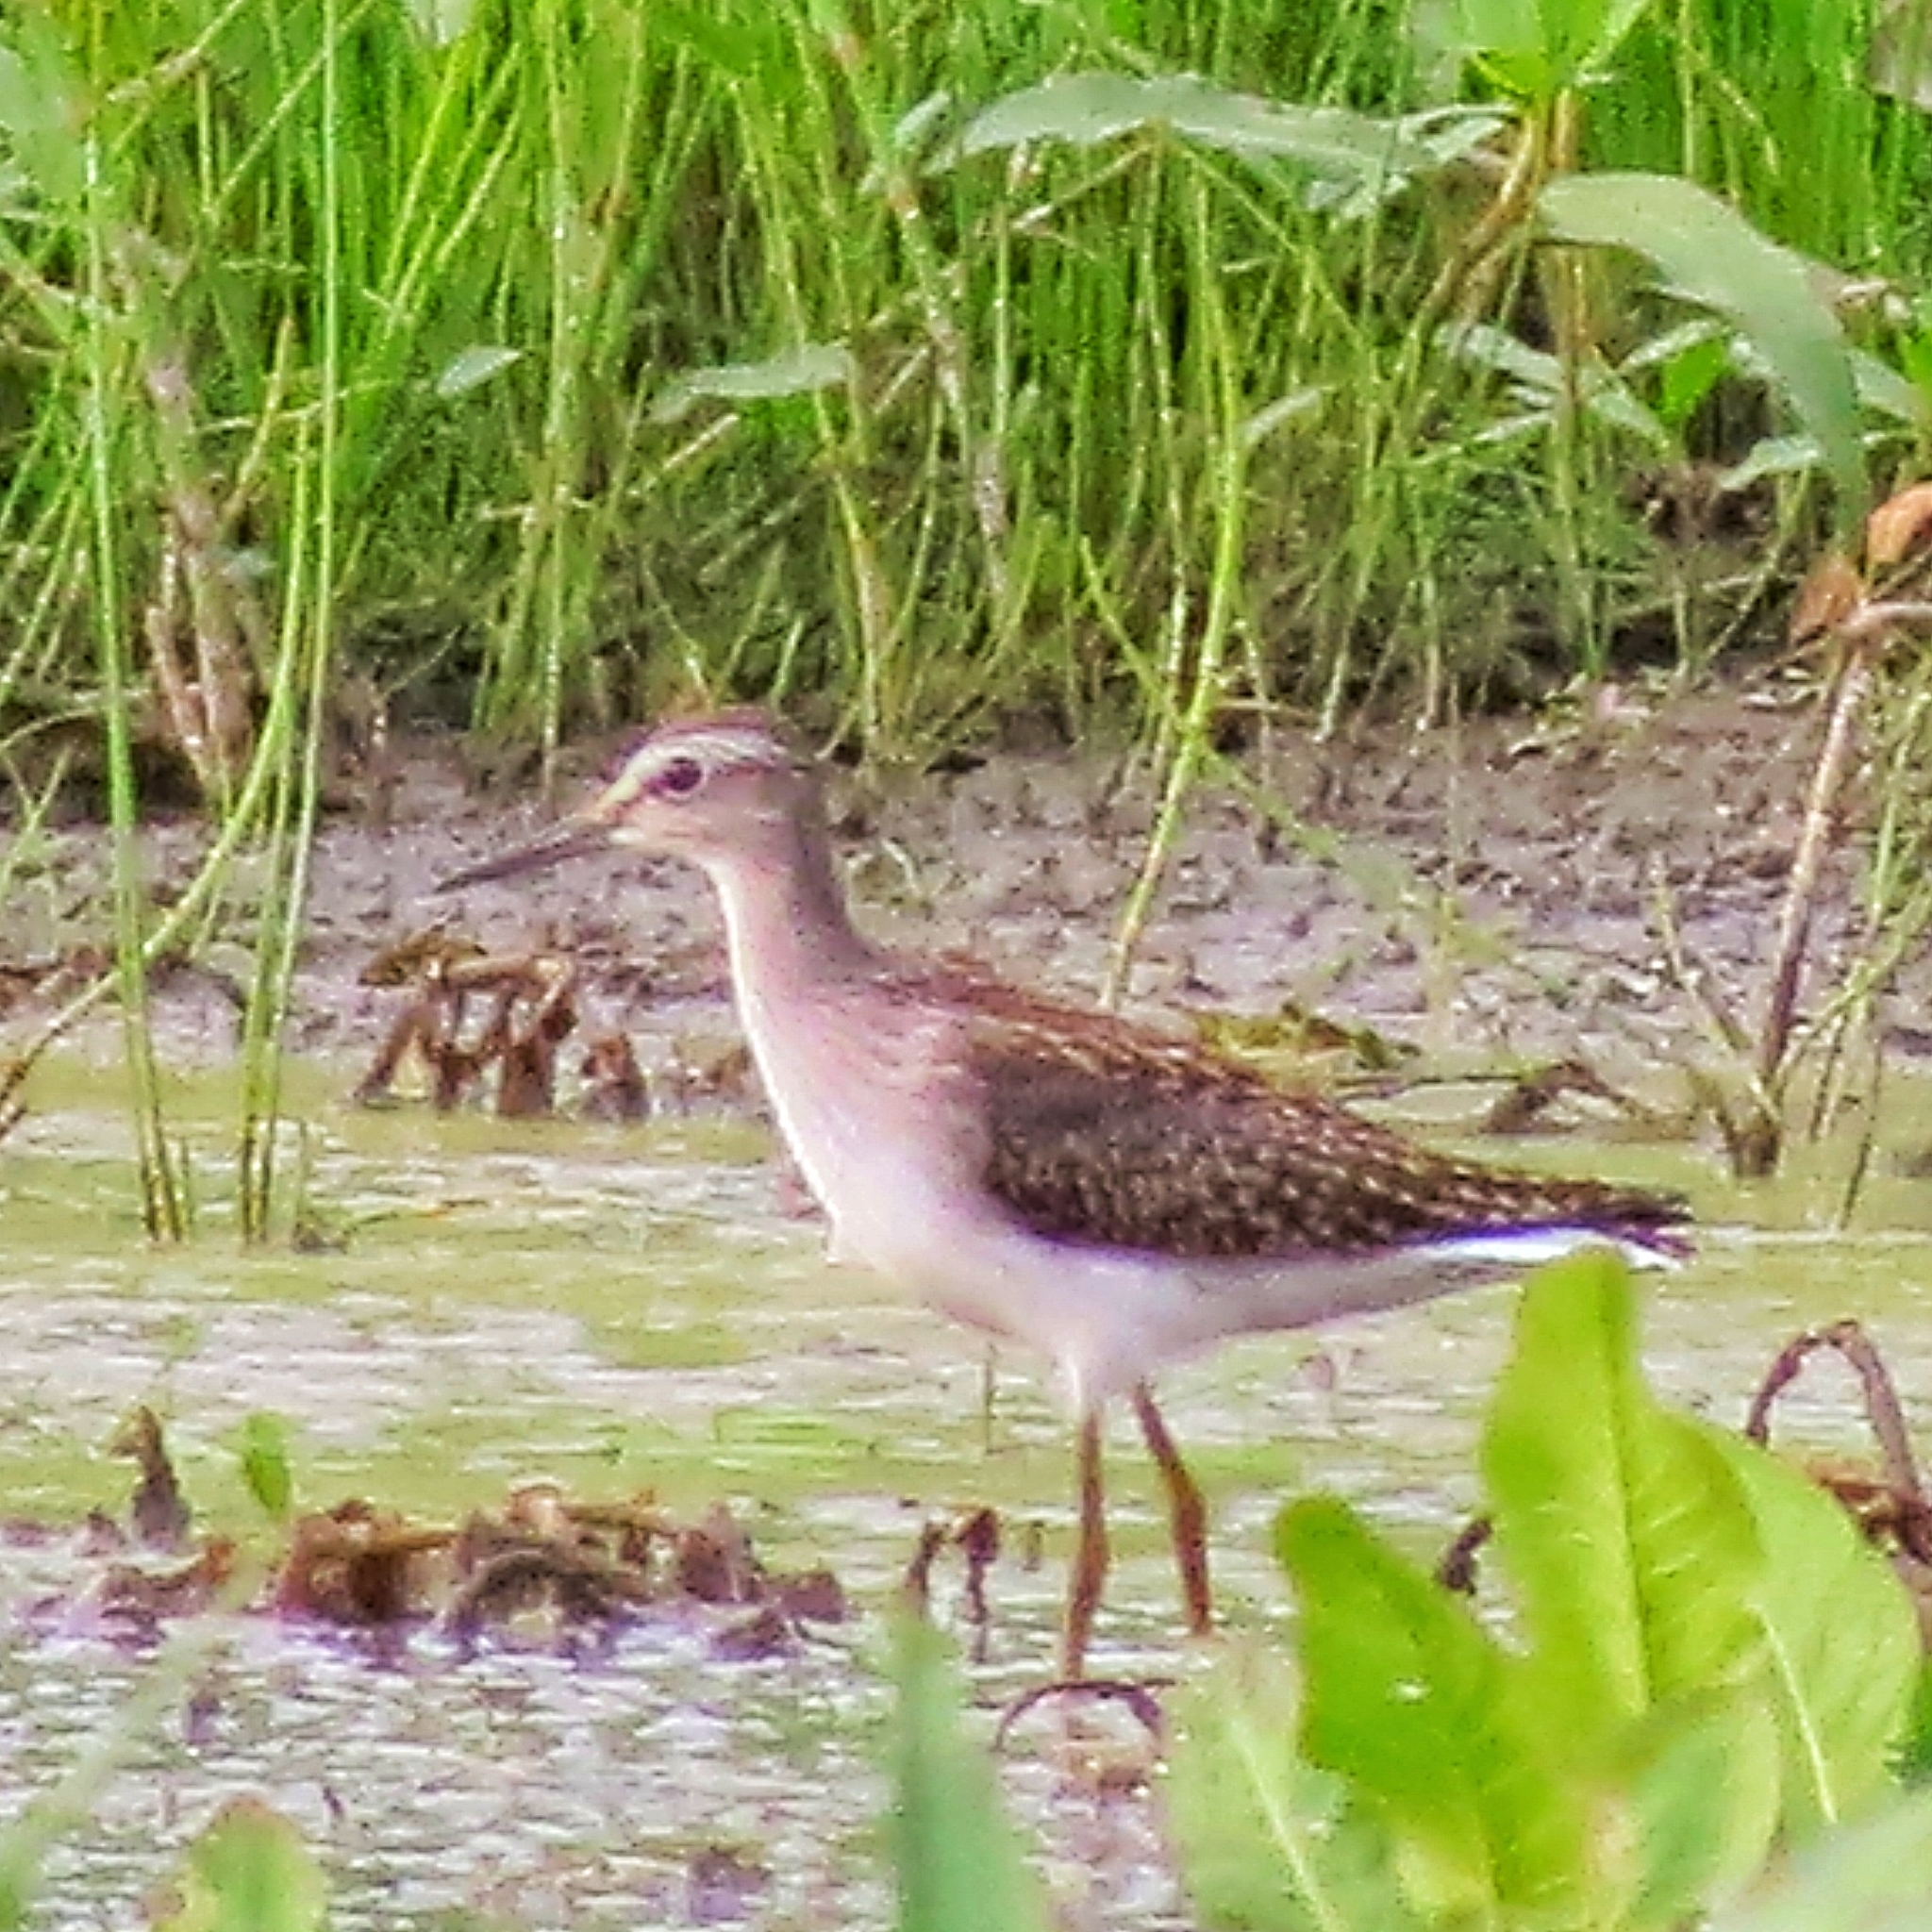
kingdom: Animalia
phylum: Chordata
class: Aves
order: Charadriiformes
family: Scolopacidae
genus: Tringa
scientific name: Tringa glareola
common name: Wood sandpiper
